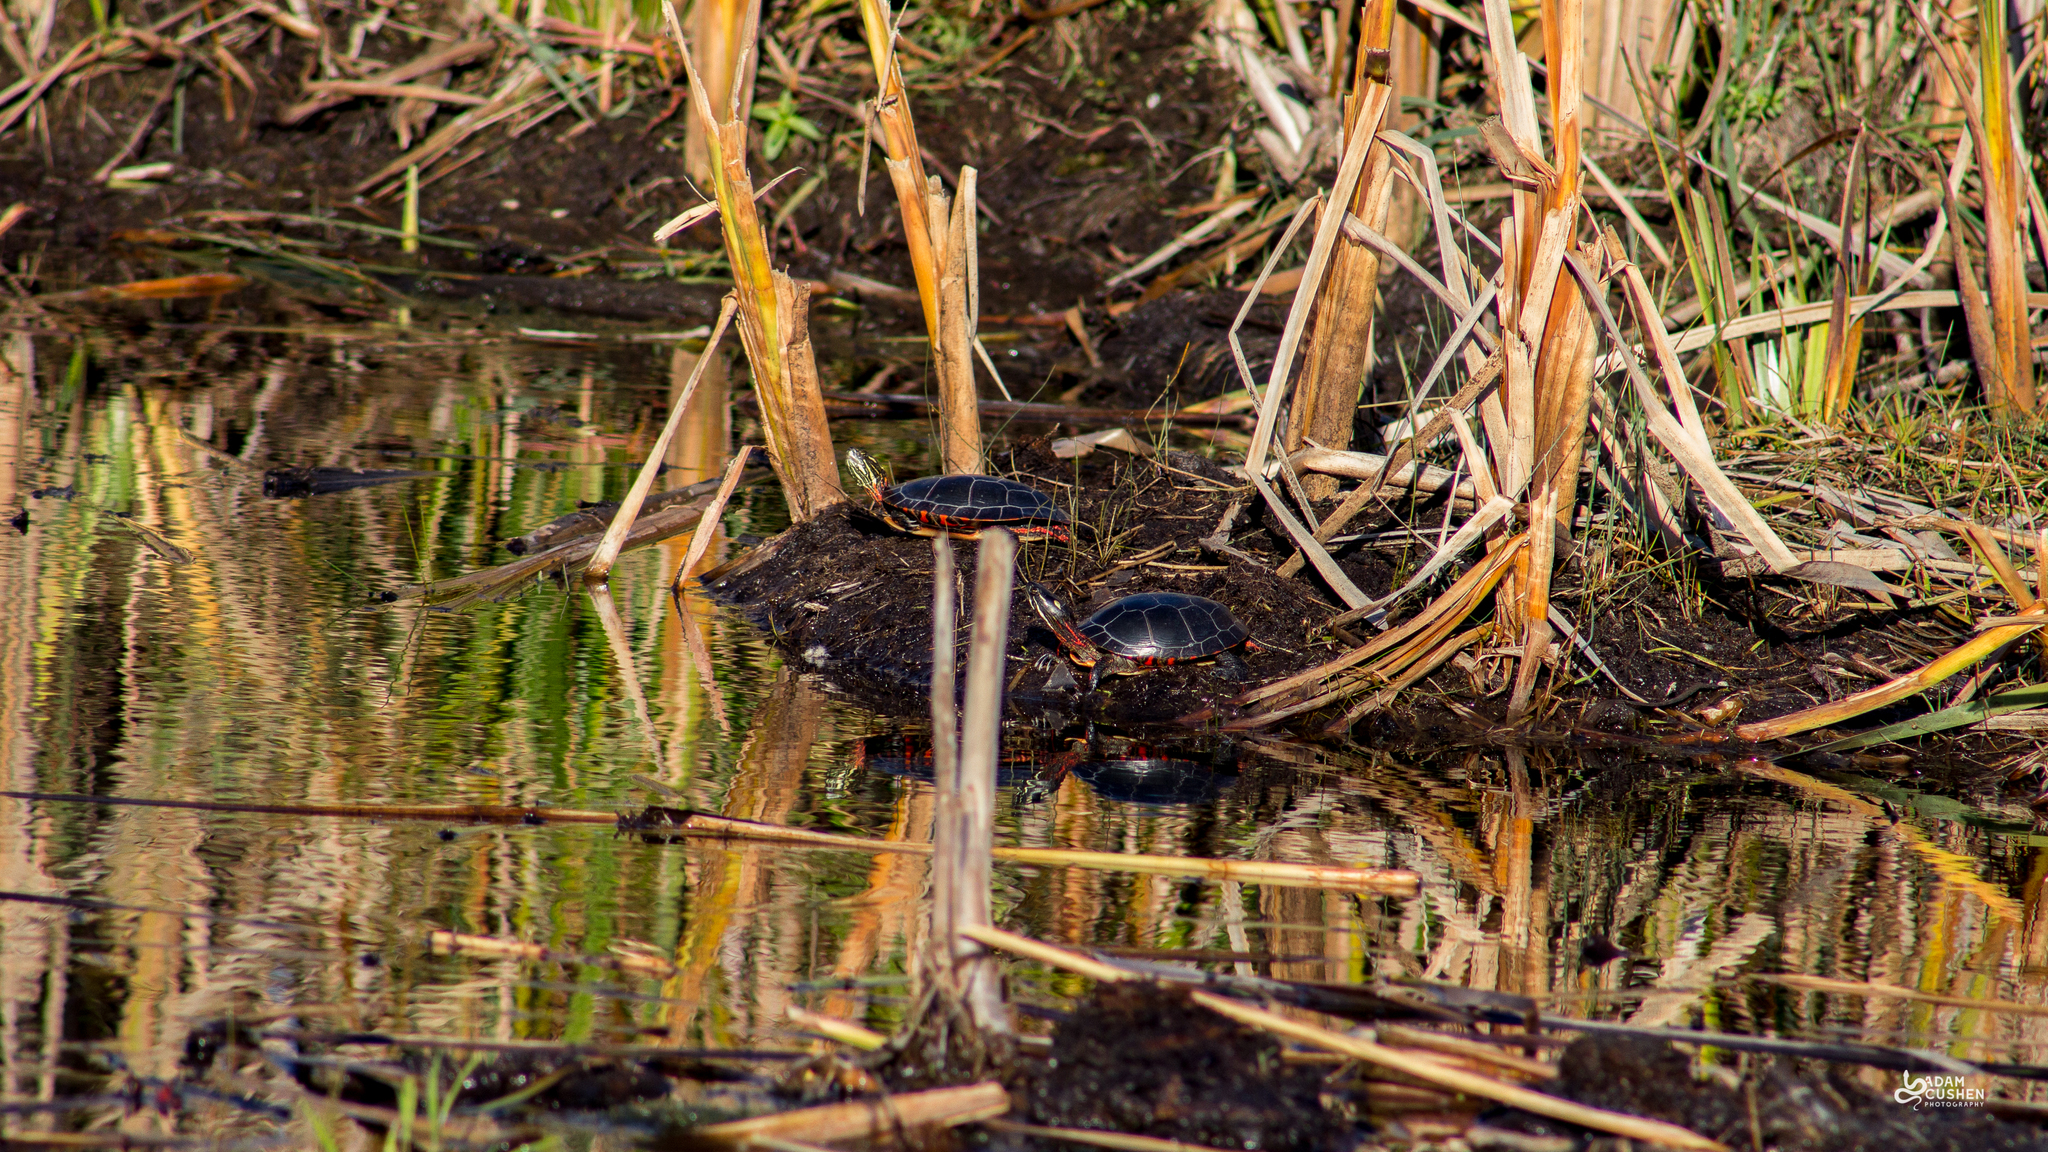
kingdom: Animalia
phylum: Chordata
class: Testudines
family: Emydidae
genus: Chrysemys
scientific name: Chrysemys picta
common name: Painted turtle
